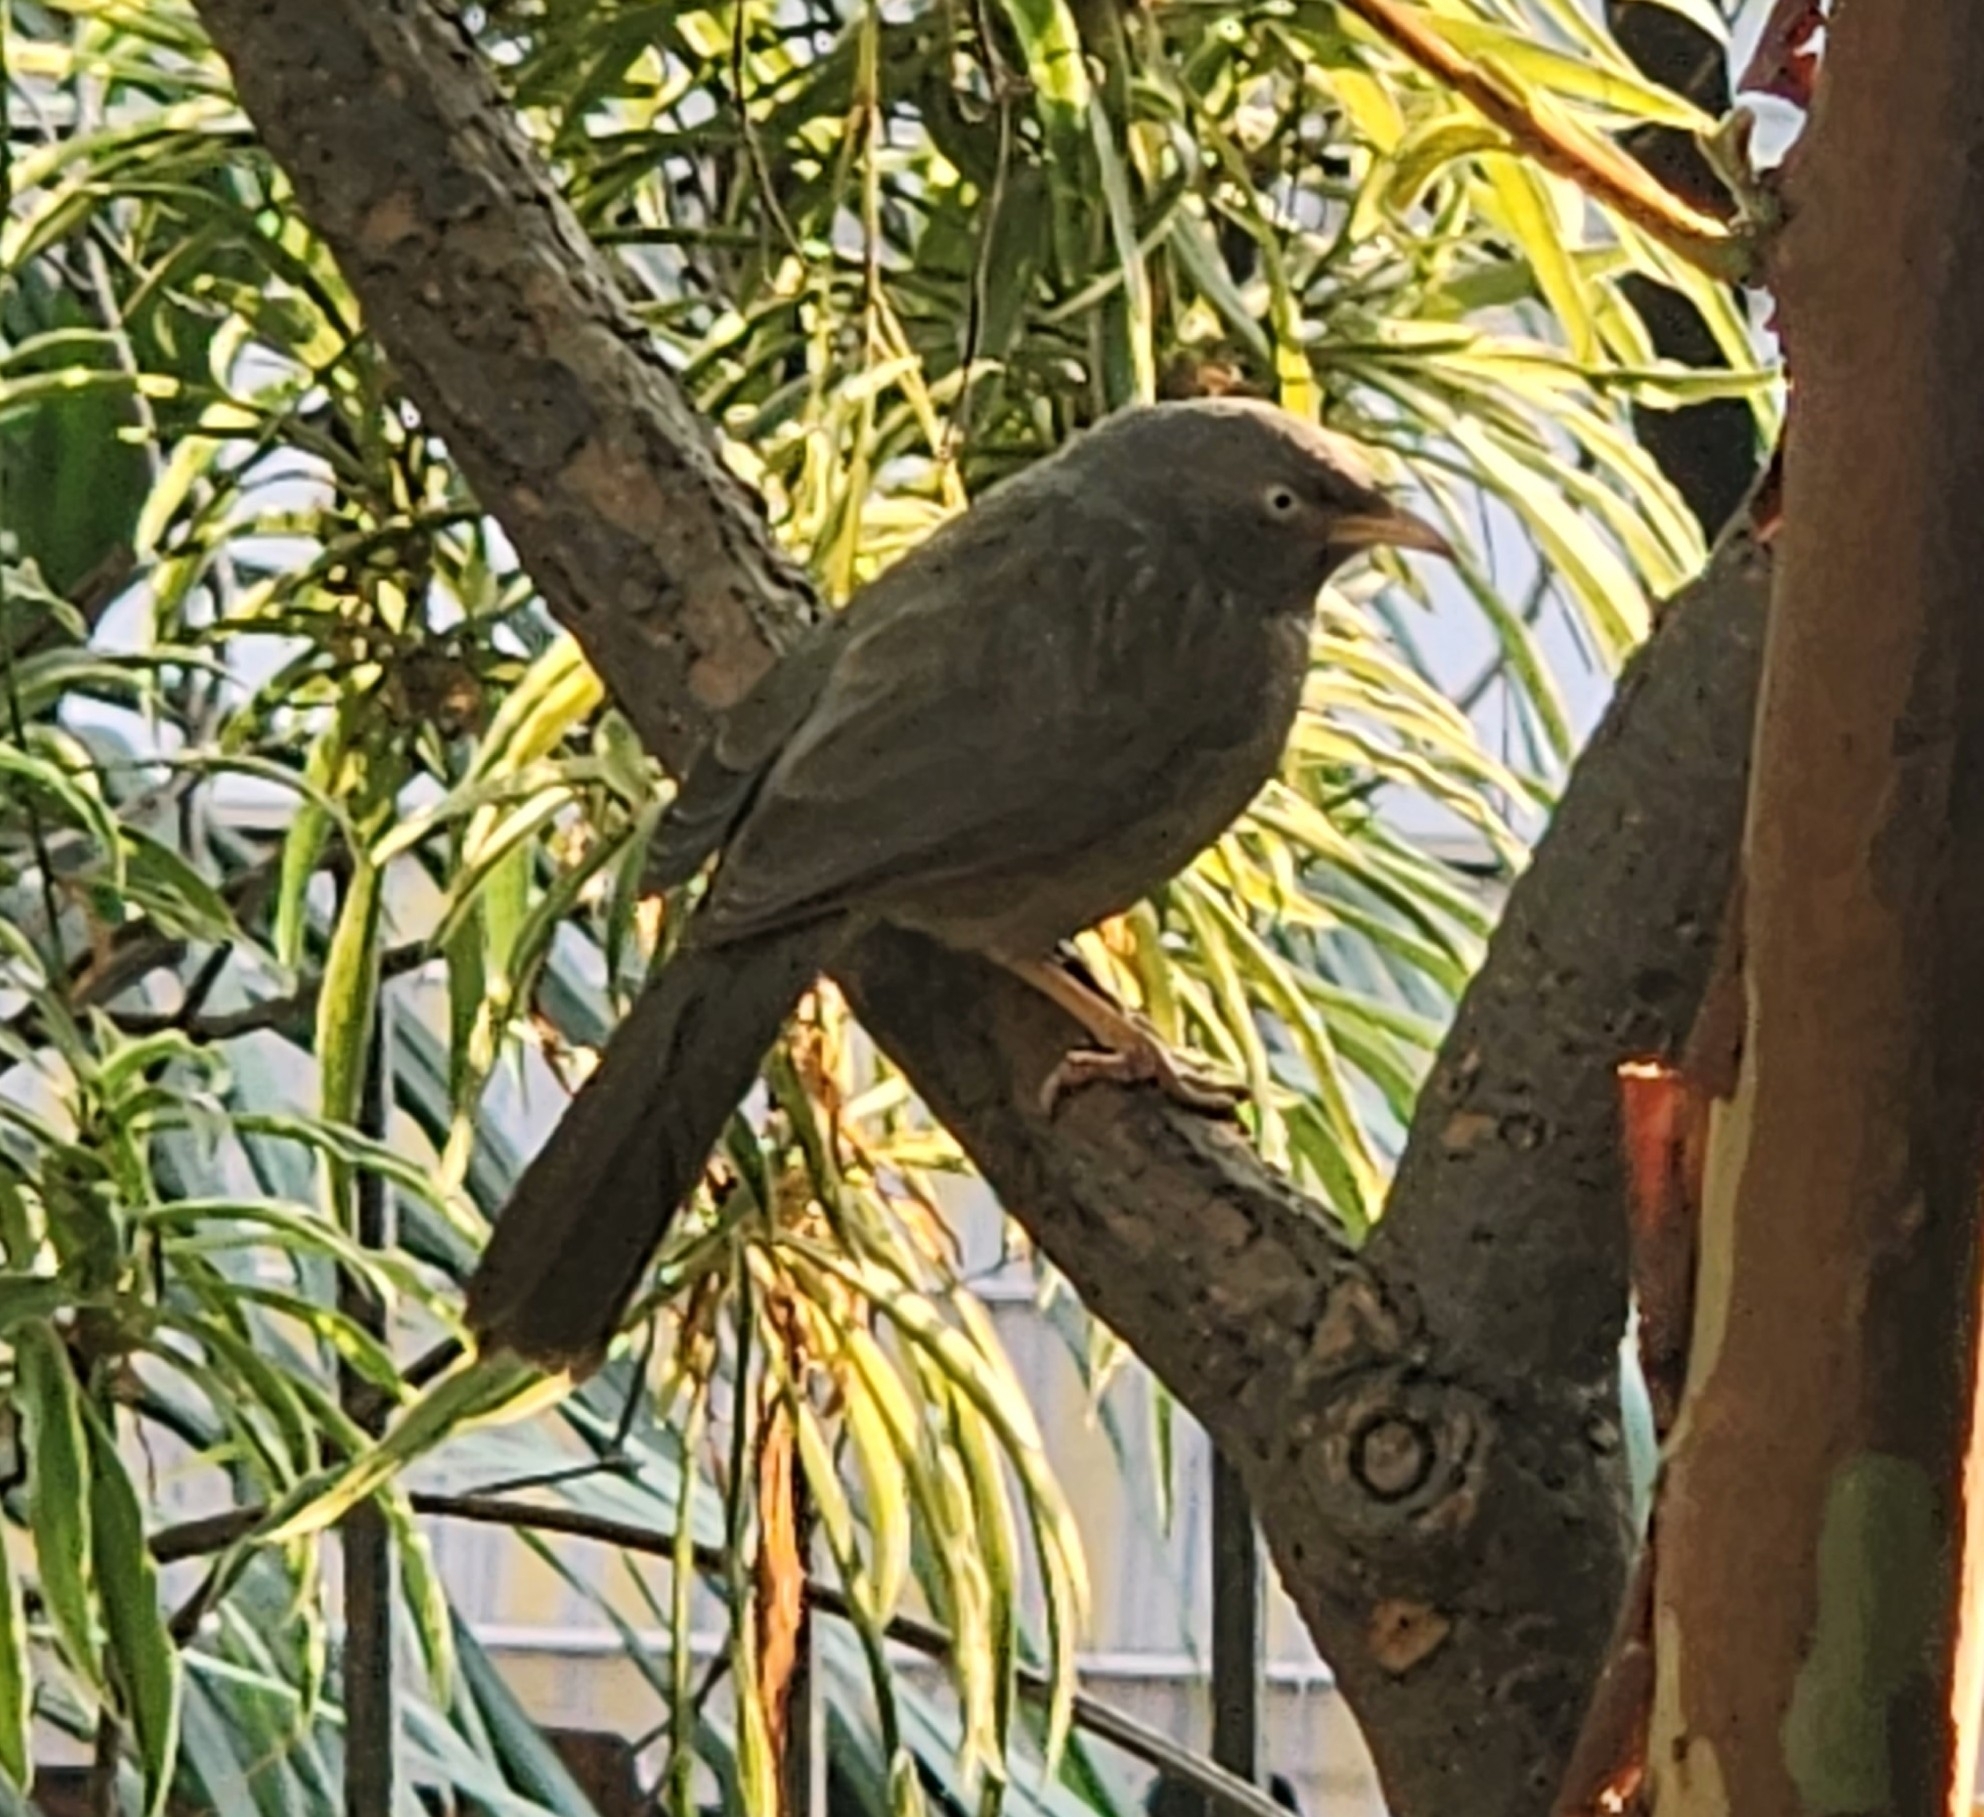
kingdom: Animalia
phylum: Chordata
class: Aves
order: Passeriformes
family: Leiothrichidae
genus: Turdoides
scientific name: Turdoides striata
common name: Jungle babbler
